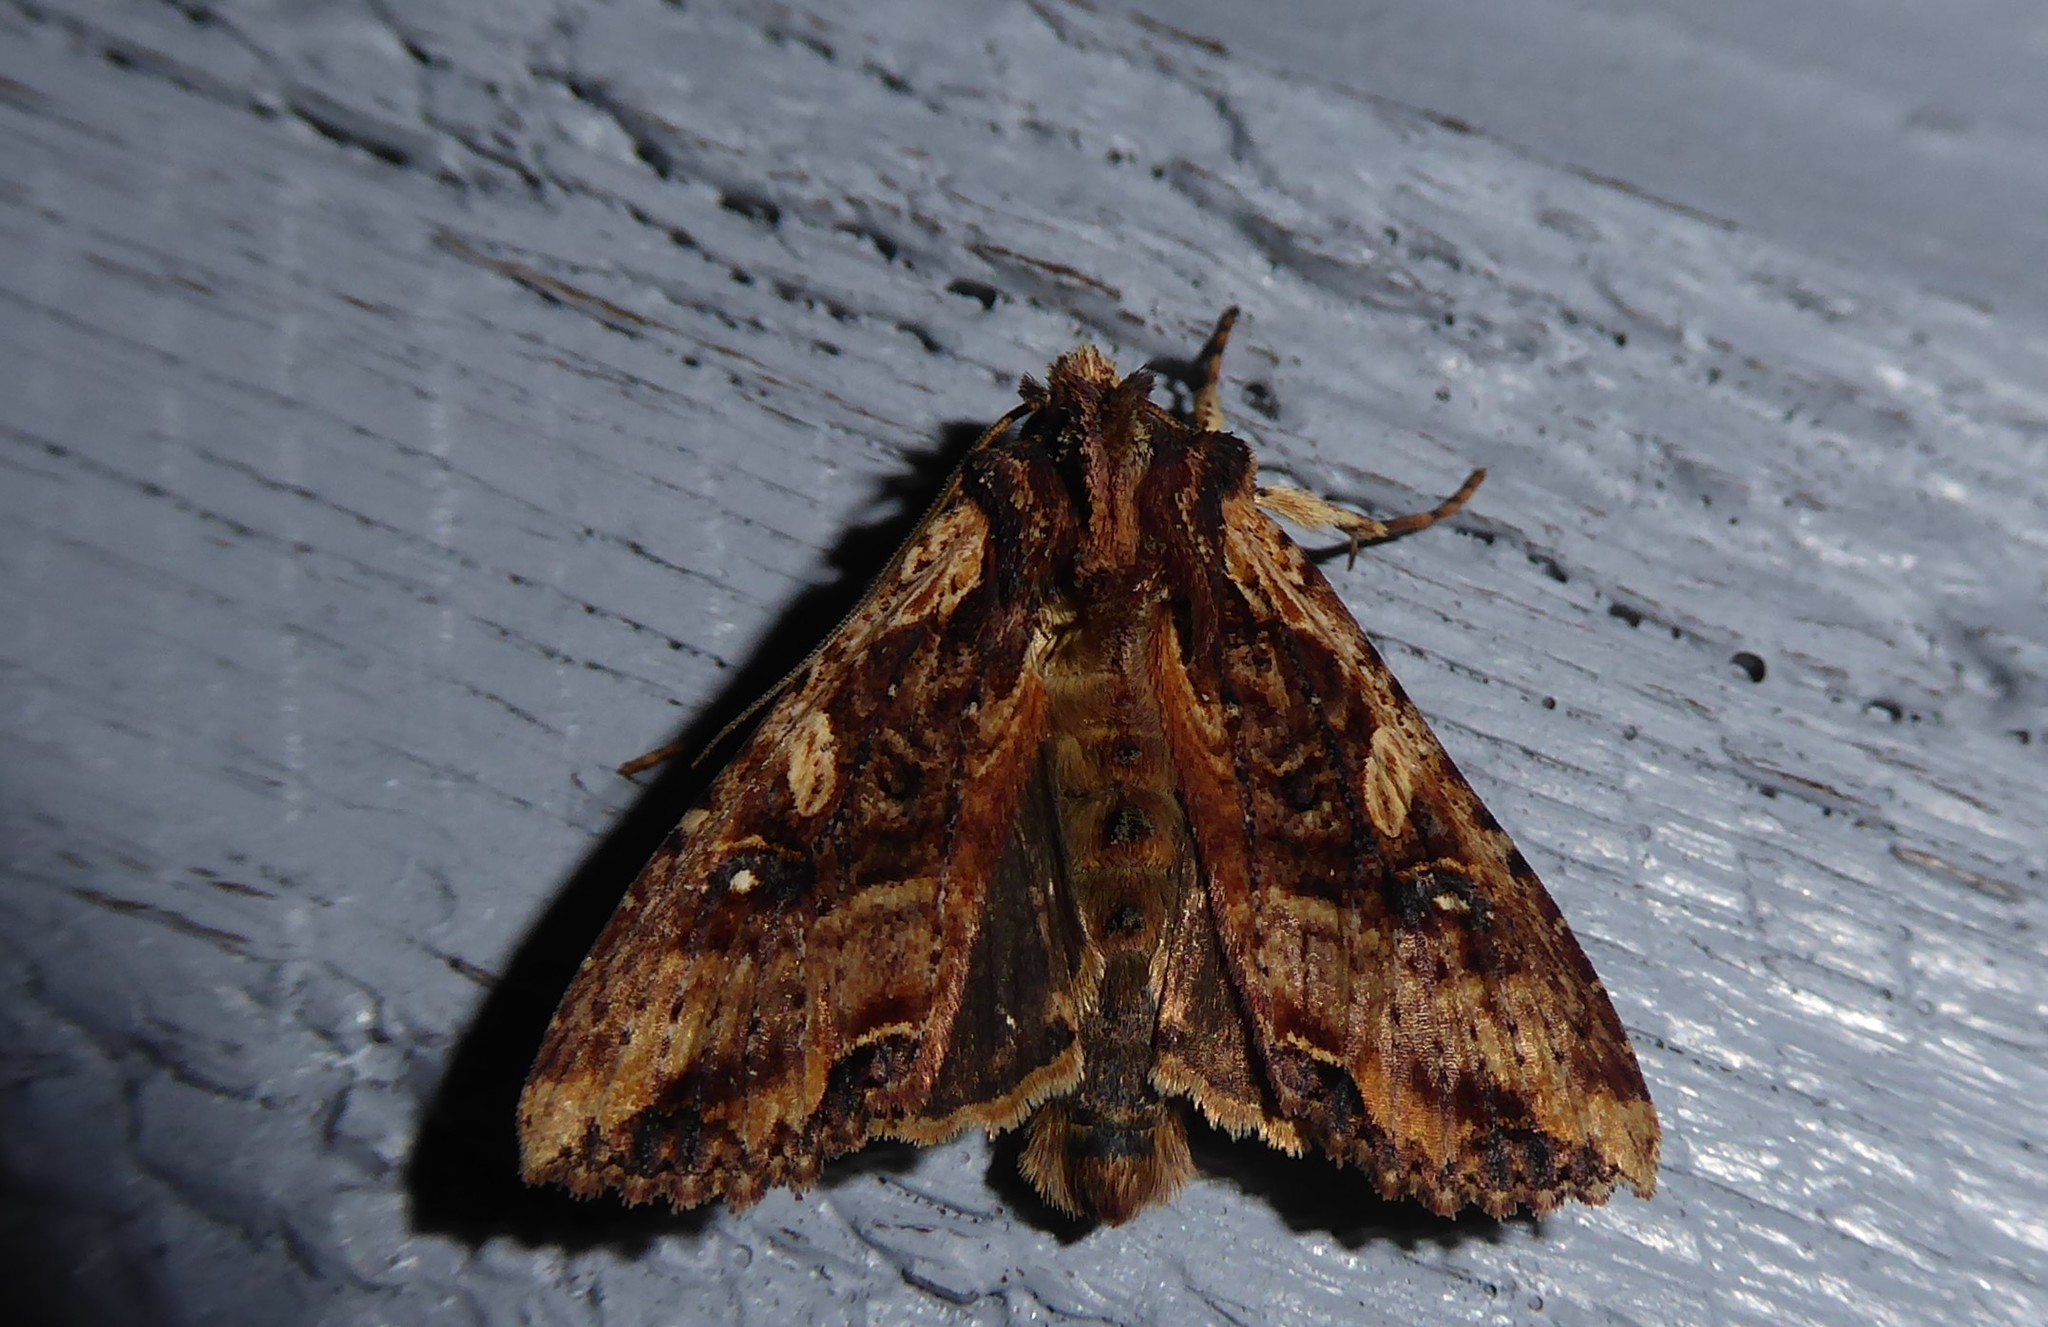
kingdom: Animalia
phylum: Arthropoda
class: Insecta
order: Lepidoptera
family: Noctuidae
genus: Meterana
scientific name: Meterana stipata
